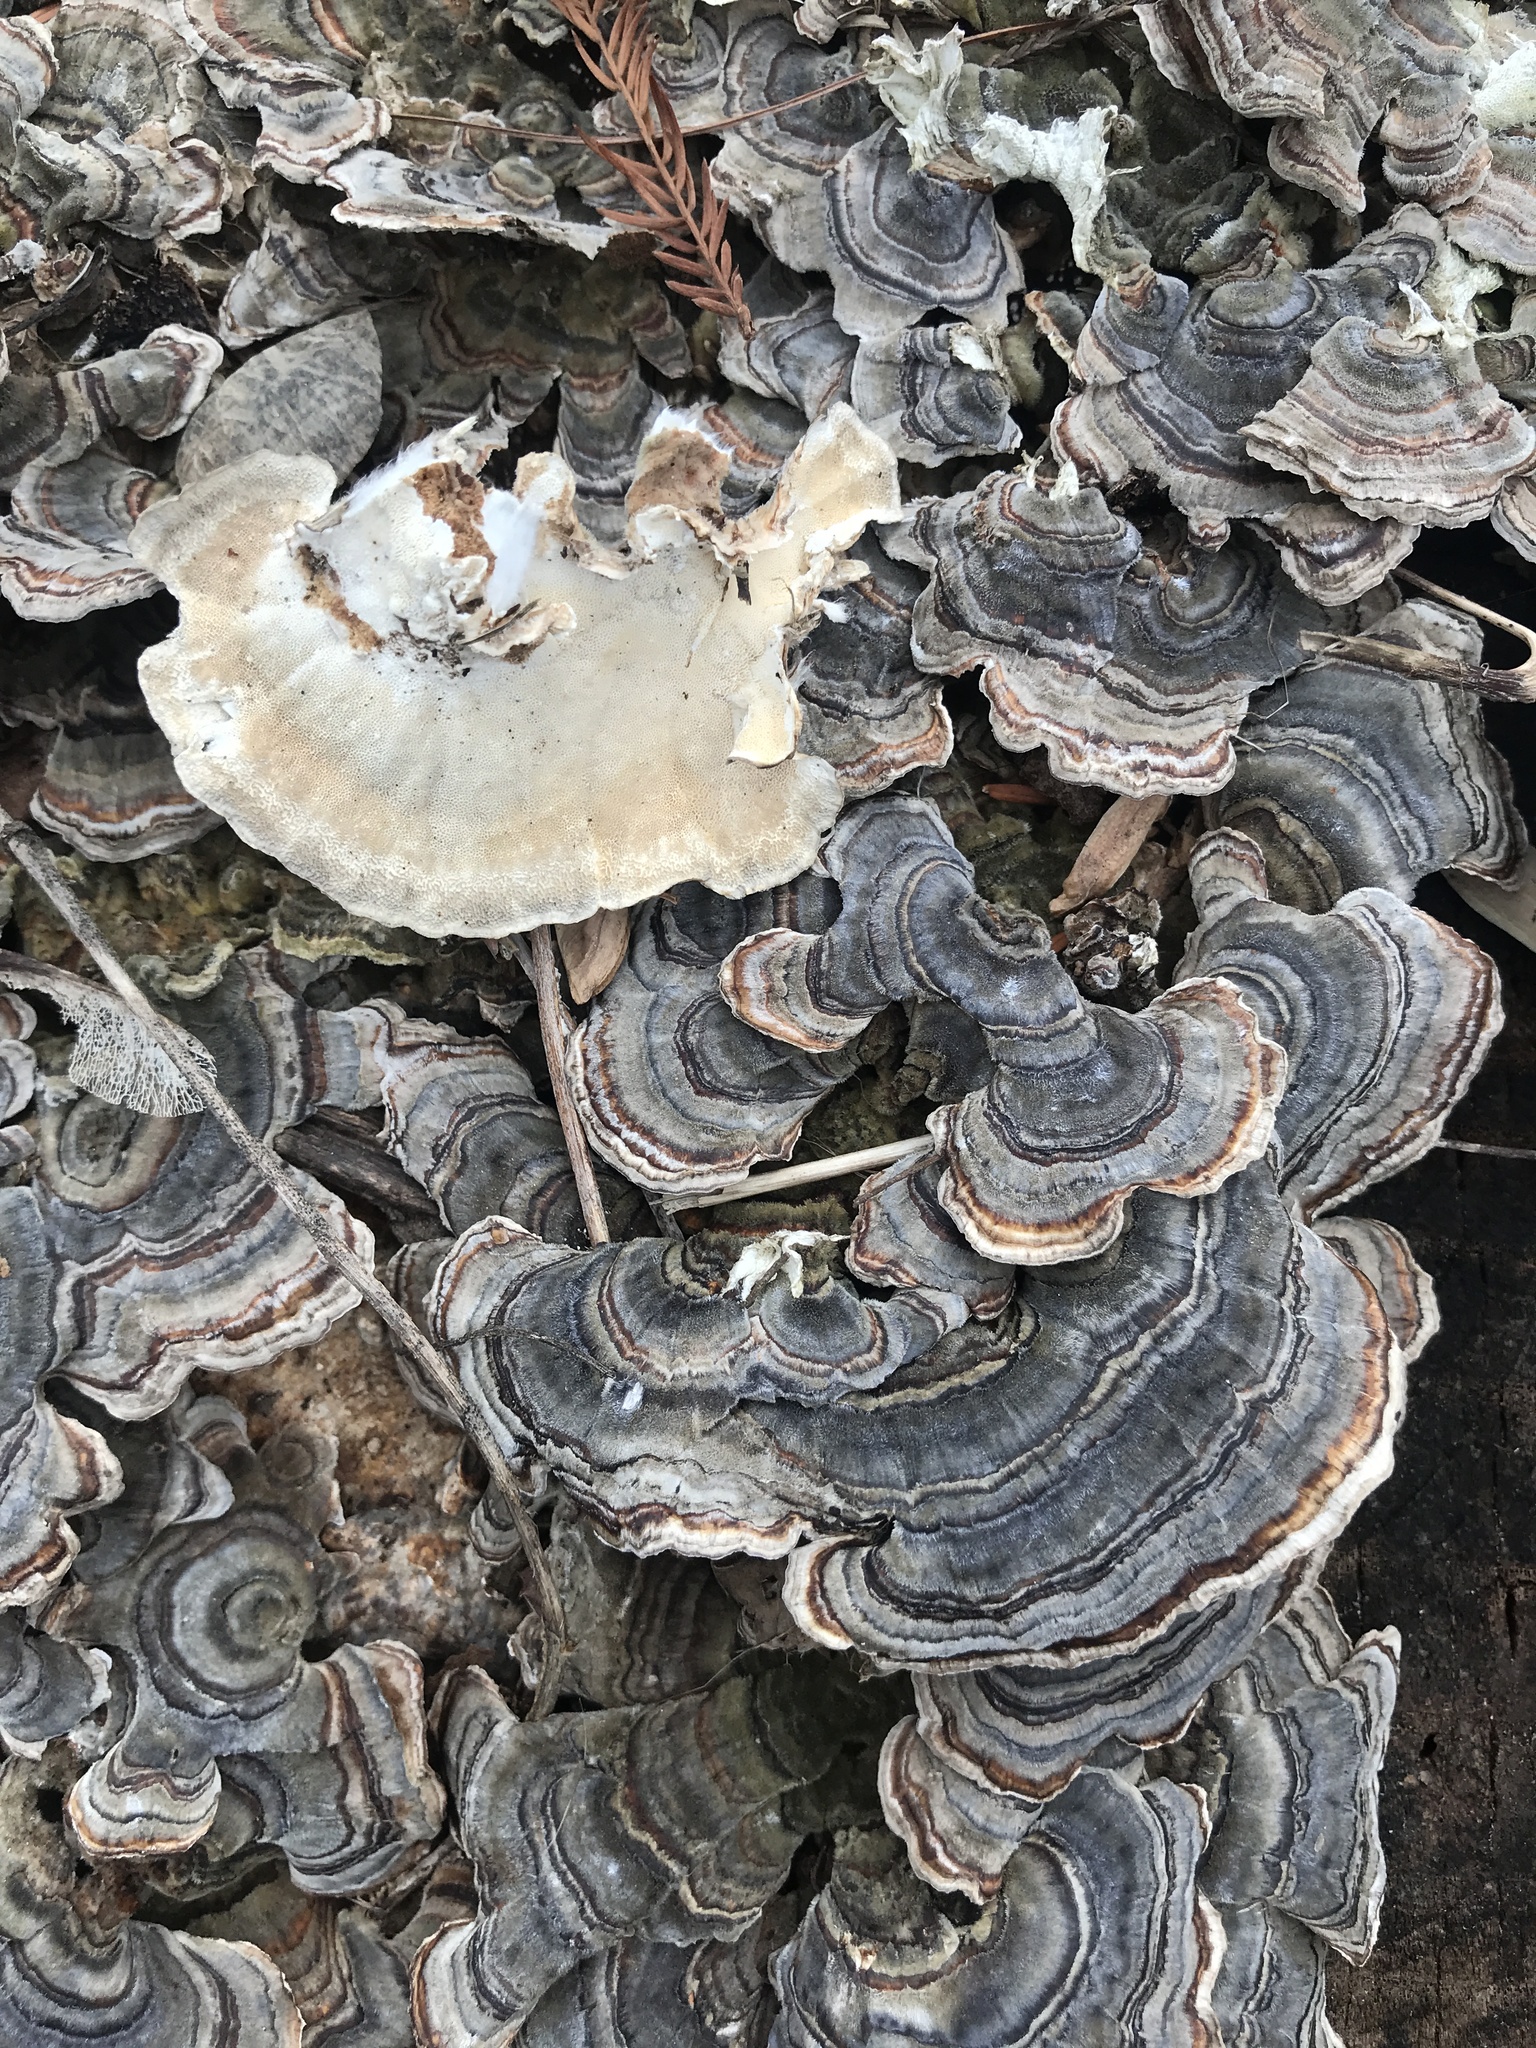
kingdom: Fungi
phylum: Basidiomycota
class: Agaricomycetes
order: Polyporales
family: Polyporaceae
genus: Trametes
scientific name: Trametes versicolor
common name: Turkeytail
